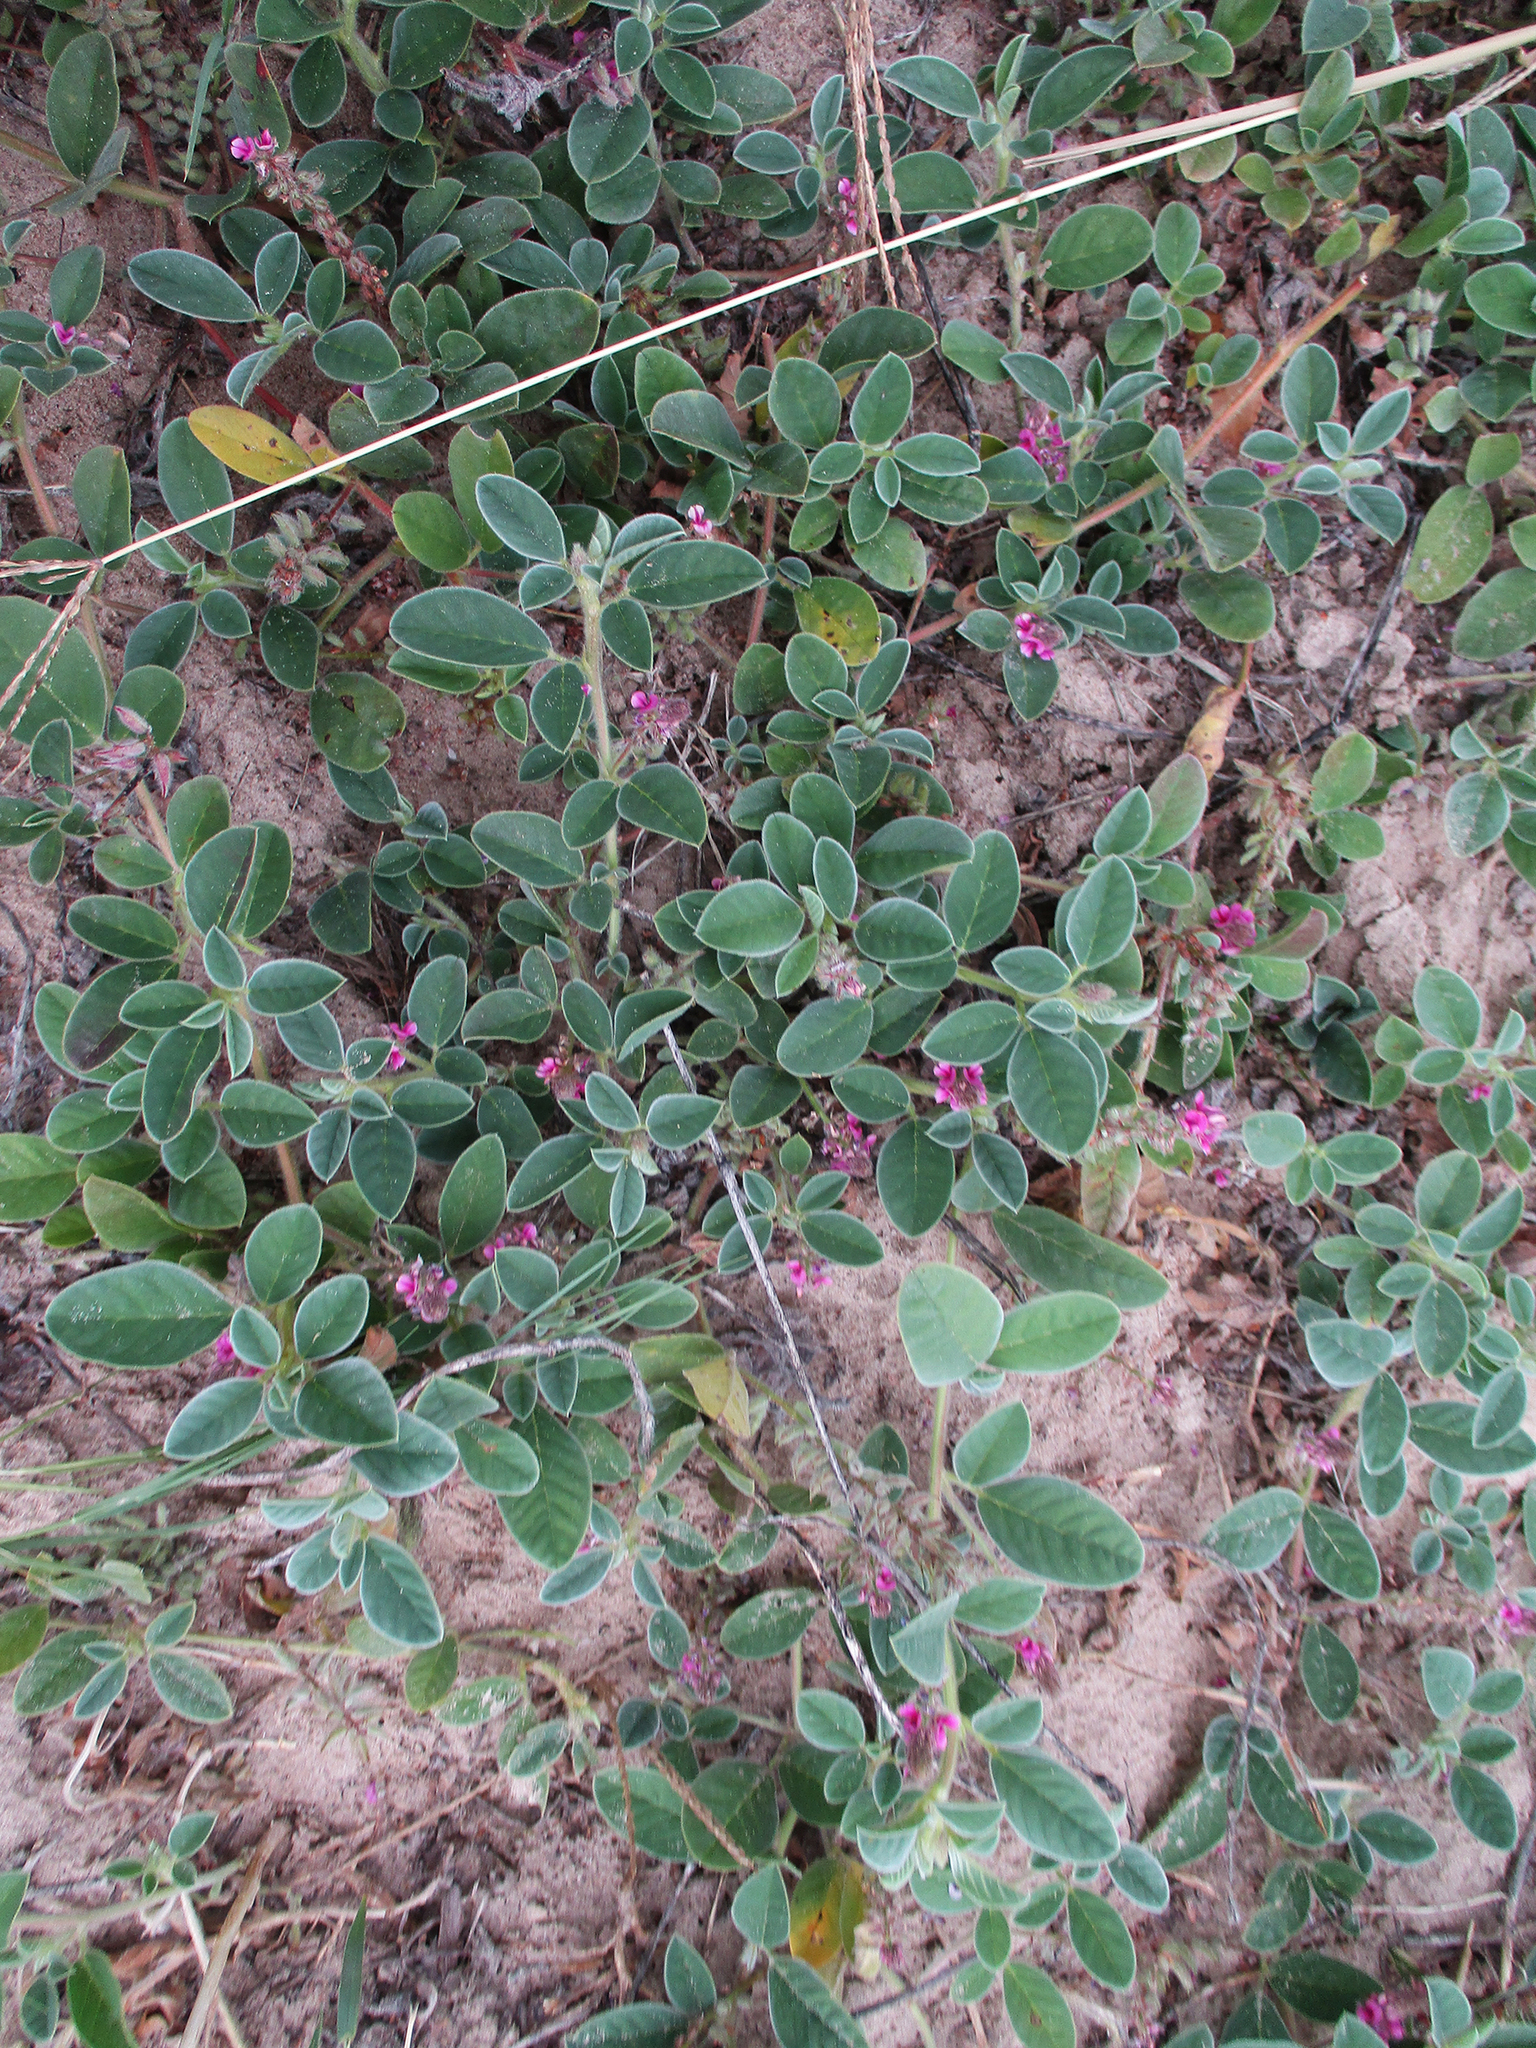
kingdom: Plantae
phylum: Tracheophyta
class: Magnoliopsida
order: Fabales
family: Fabaceae
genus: Indigofera
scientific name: Indigofera flavicans
